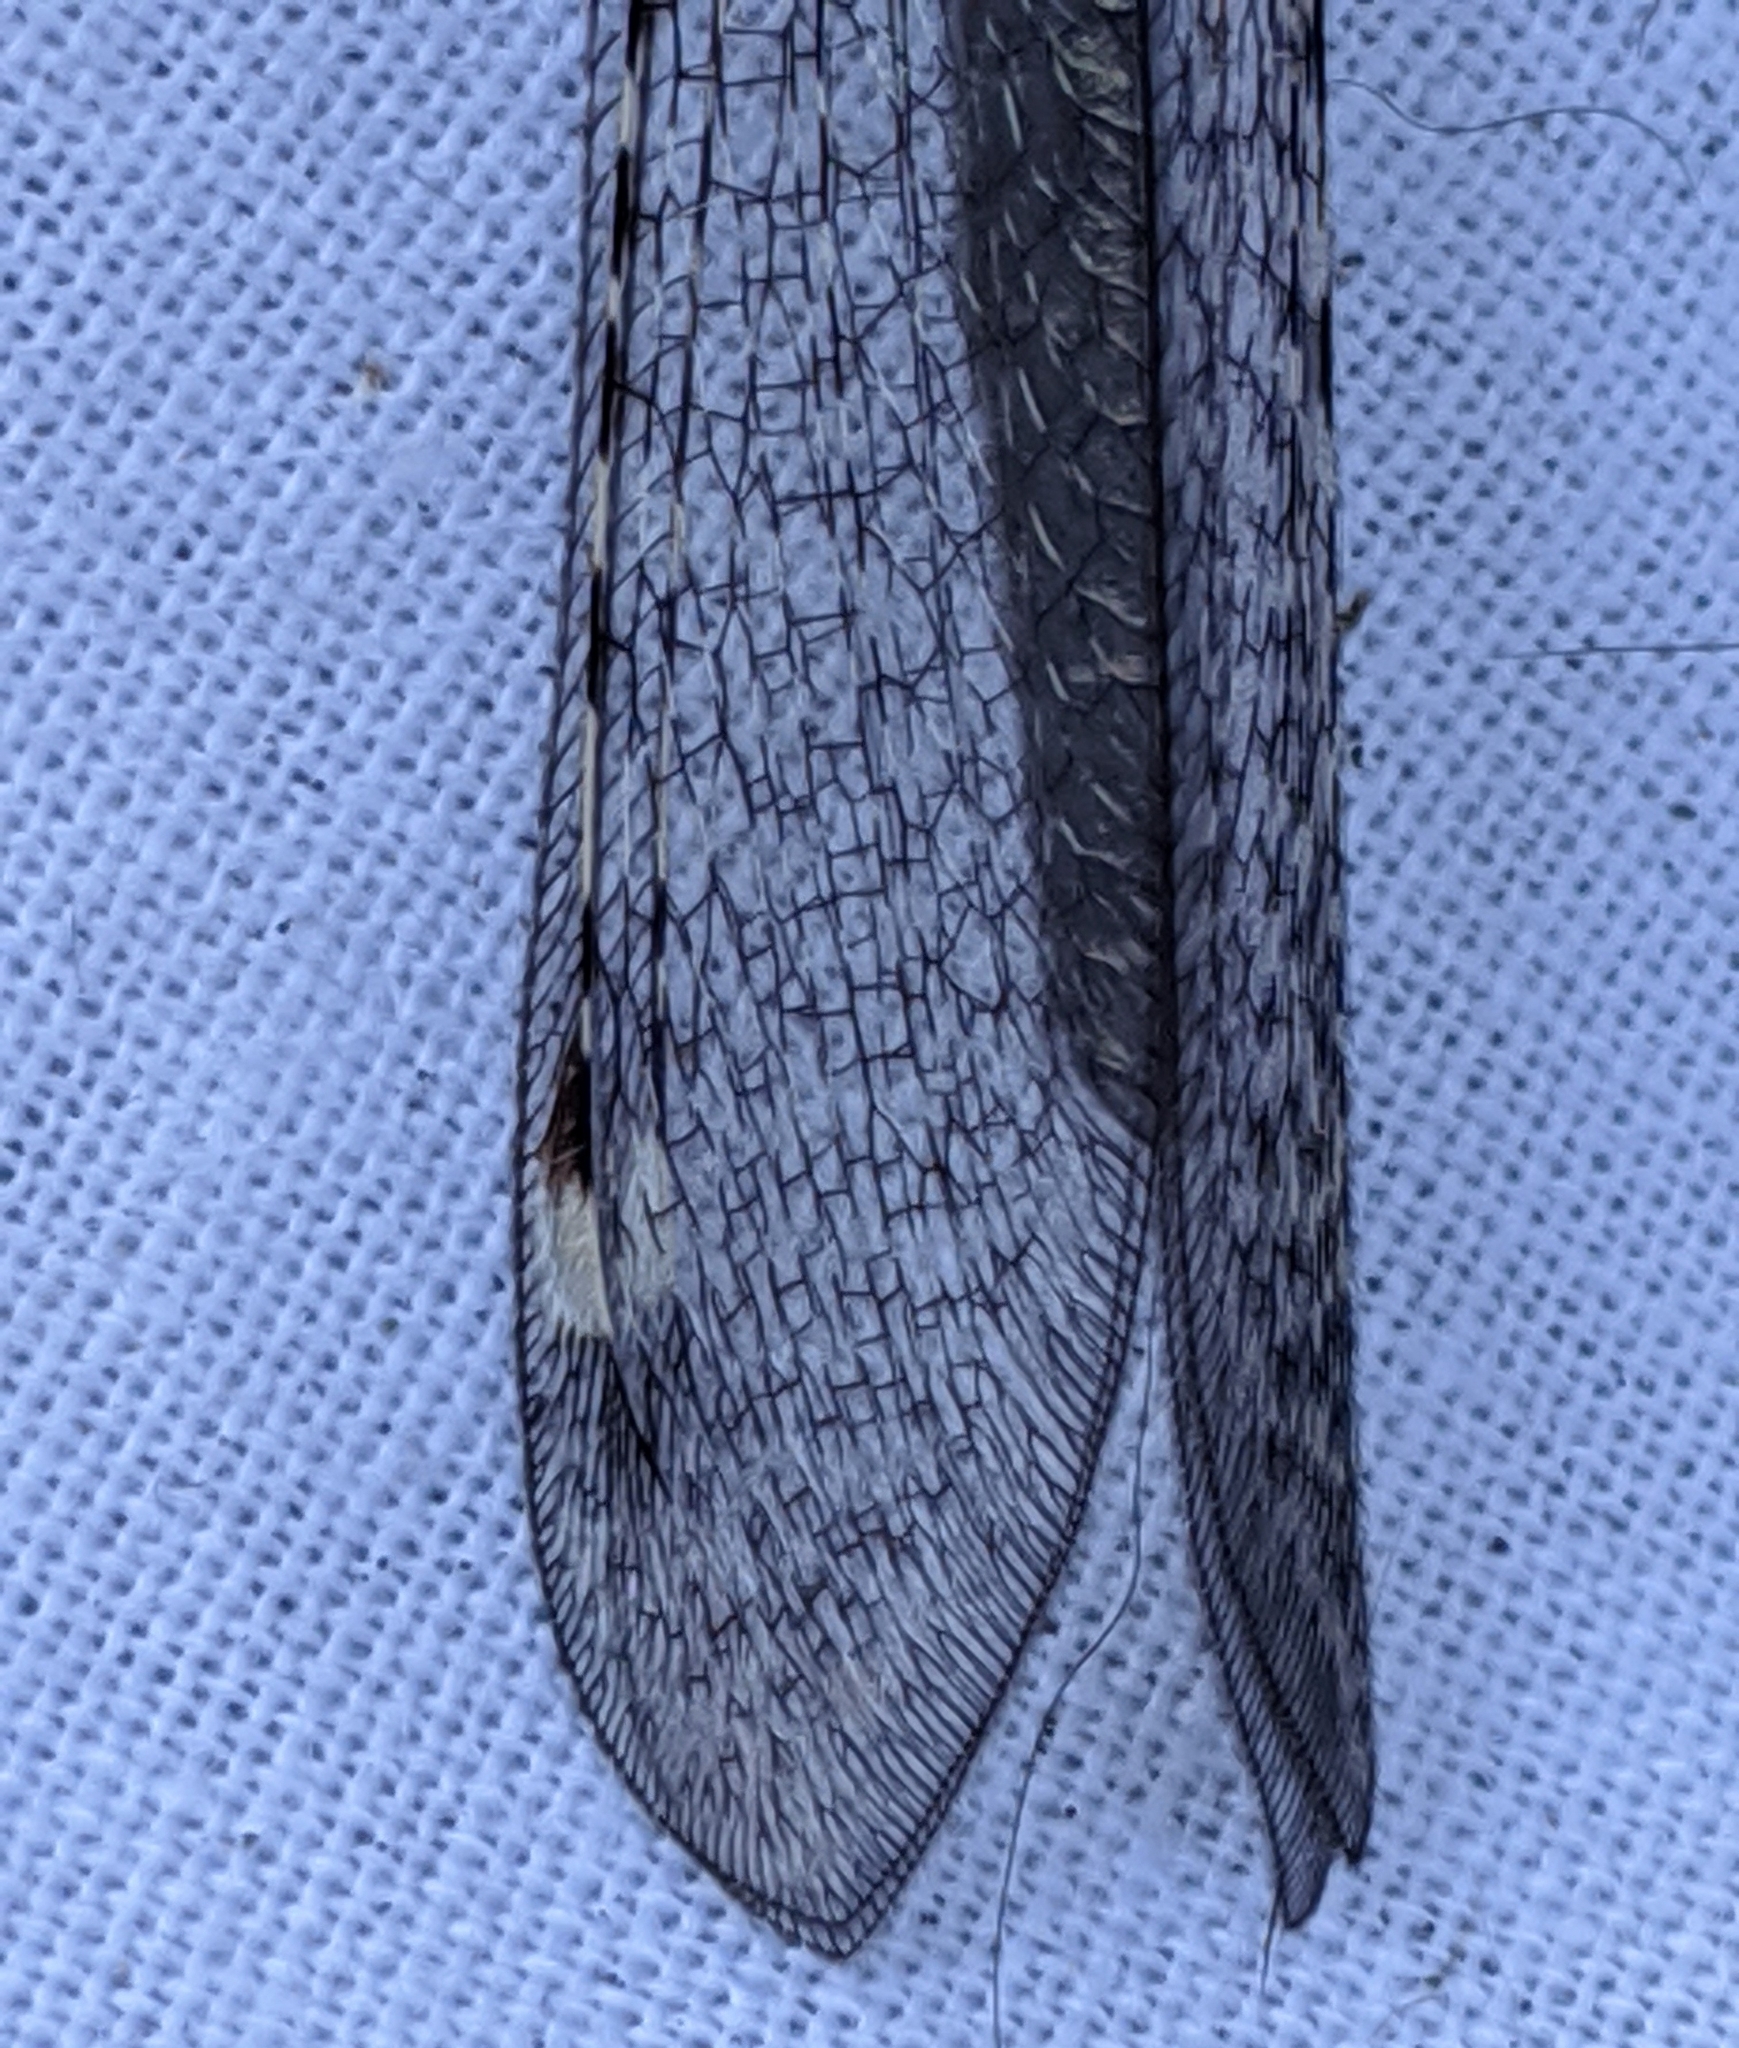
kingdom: Animalia
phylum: Arthropoda
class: Insecta
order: Neuroptera
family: Myrmeleontidae
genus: Myrmeleon
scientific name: Myrmeleon exitialis
